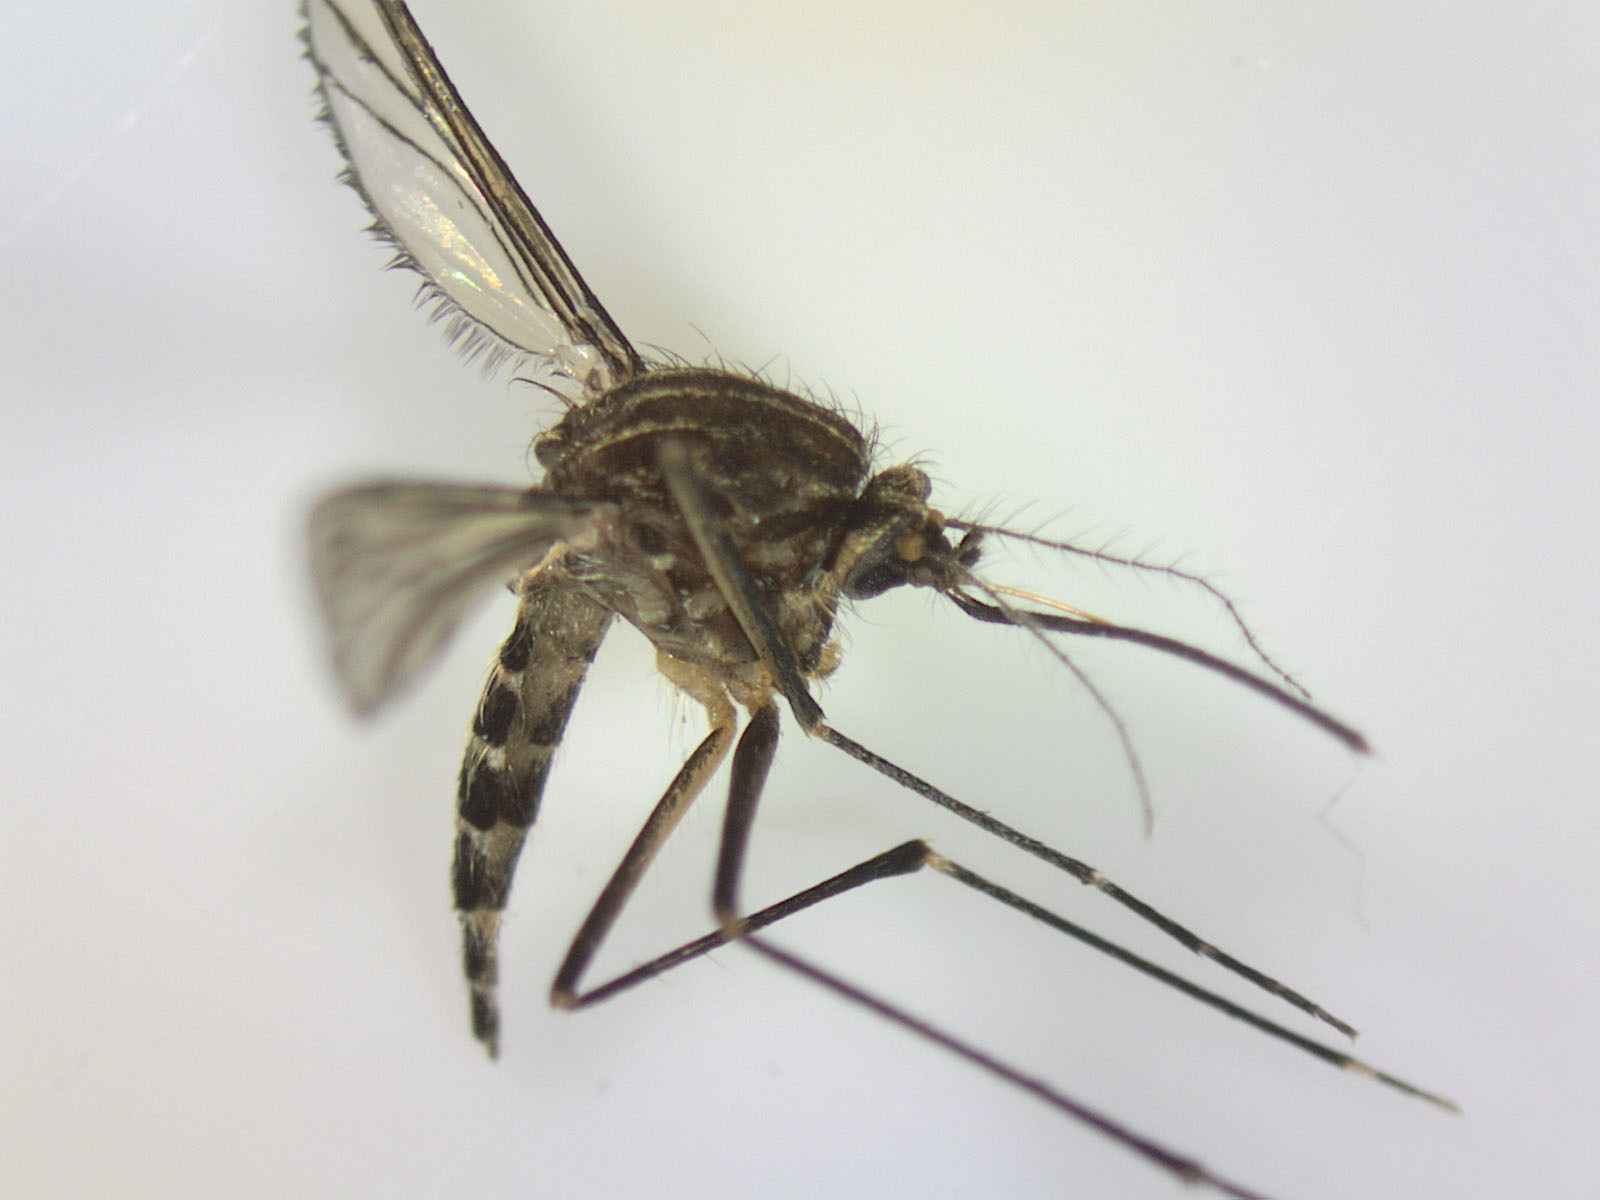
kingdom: Animalia
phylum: Arthropoda
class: Insecta
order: Diptera
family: Culicidae
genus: Aedes
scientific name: Aedes antipodeus
